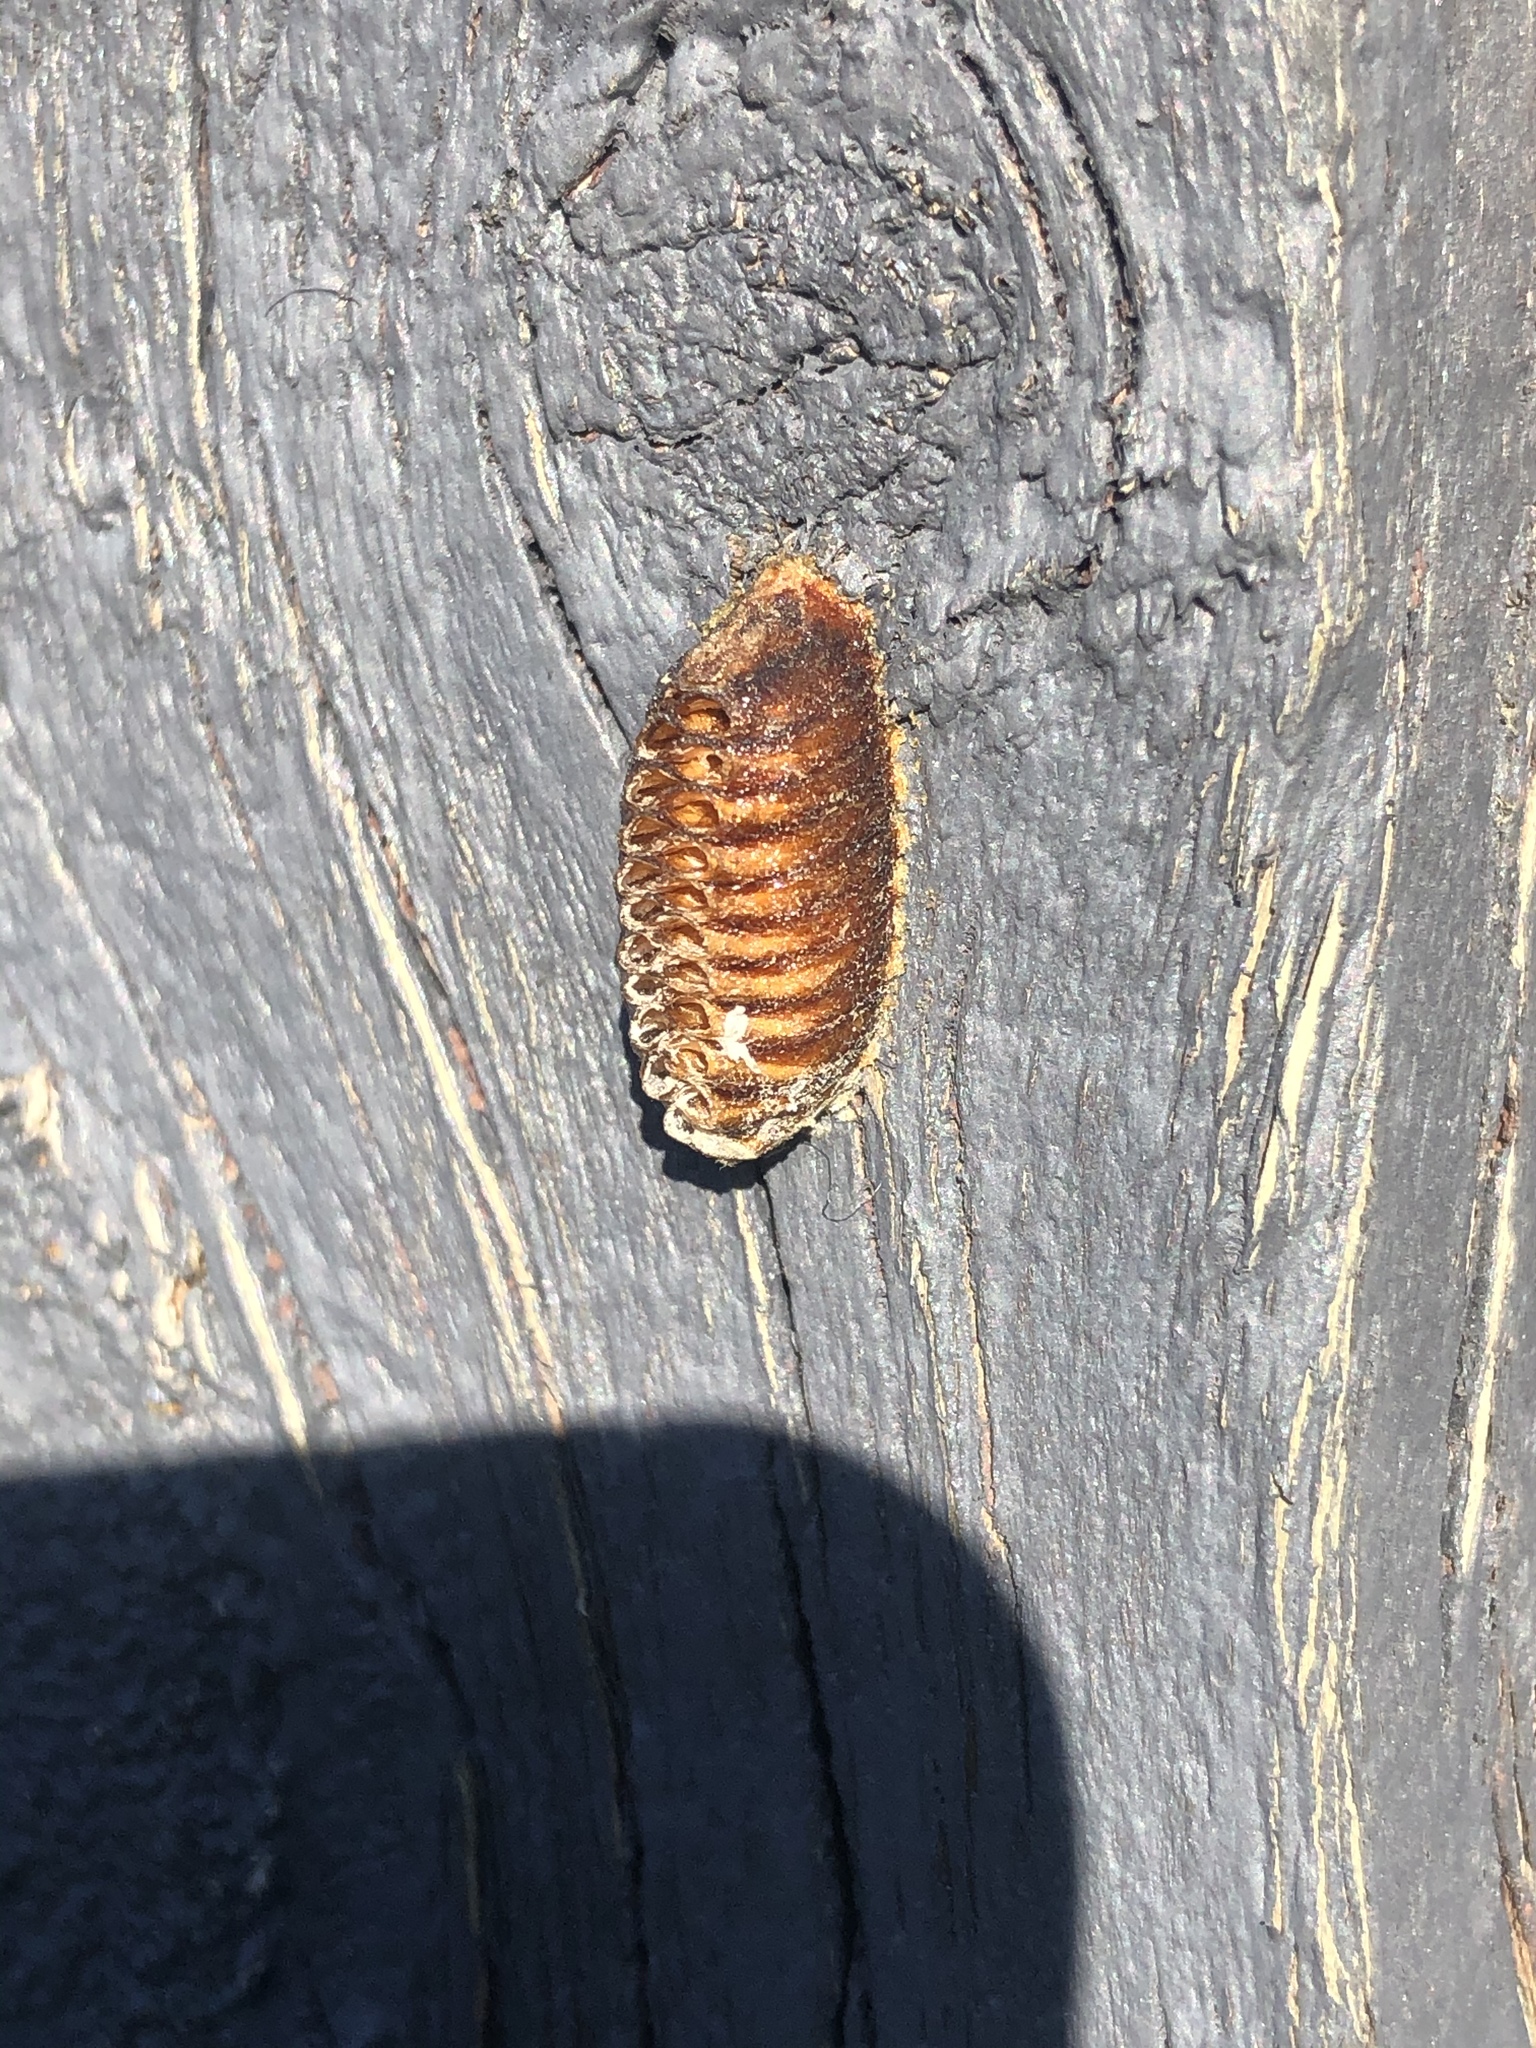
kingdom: Animalia
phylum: Arthropoda
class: Insecta
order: Mantodea
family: Mantidae
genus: Orthodera
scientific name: Orthodera novaezealandiae
